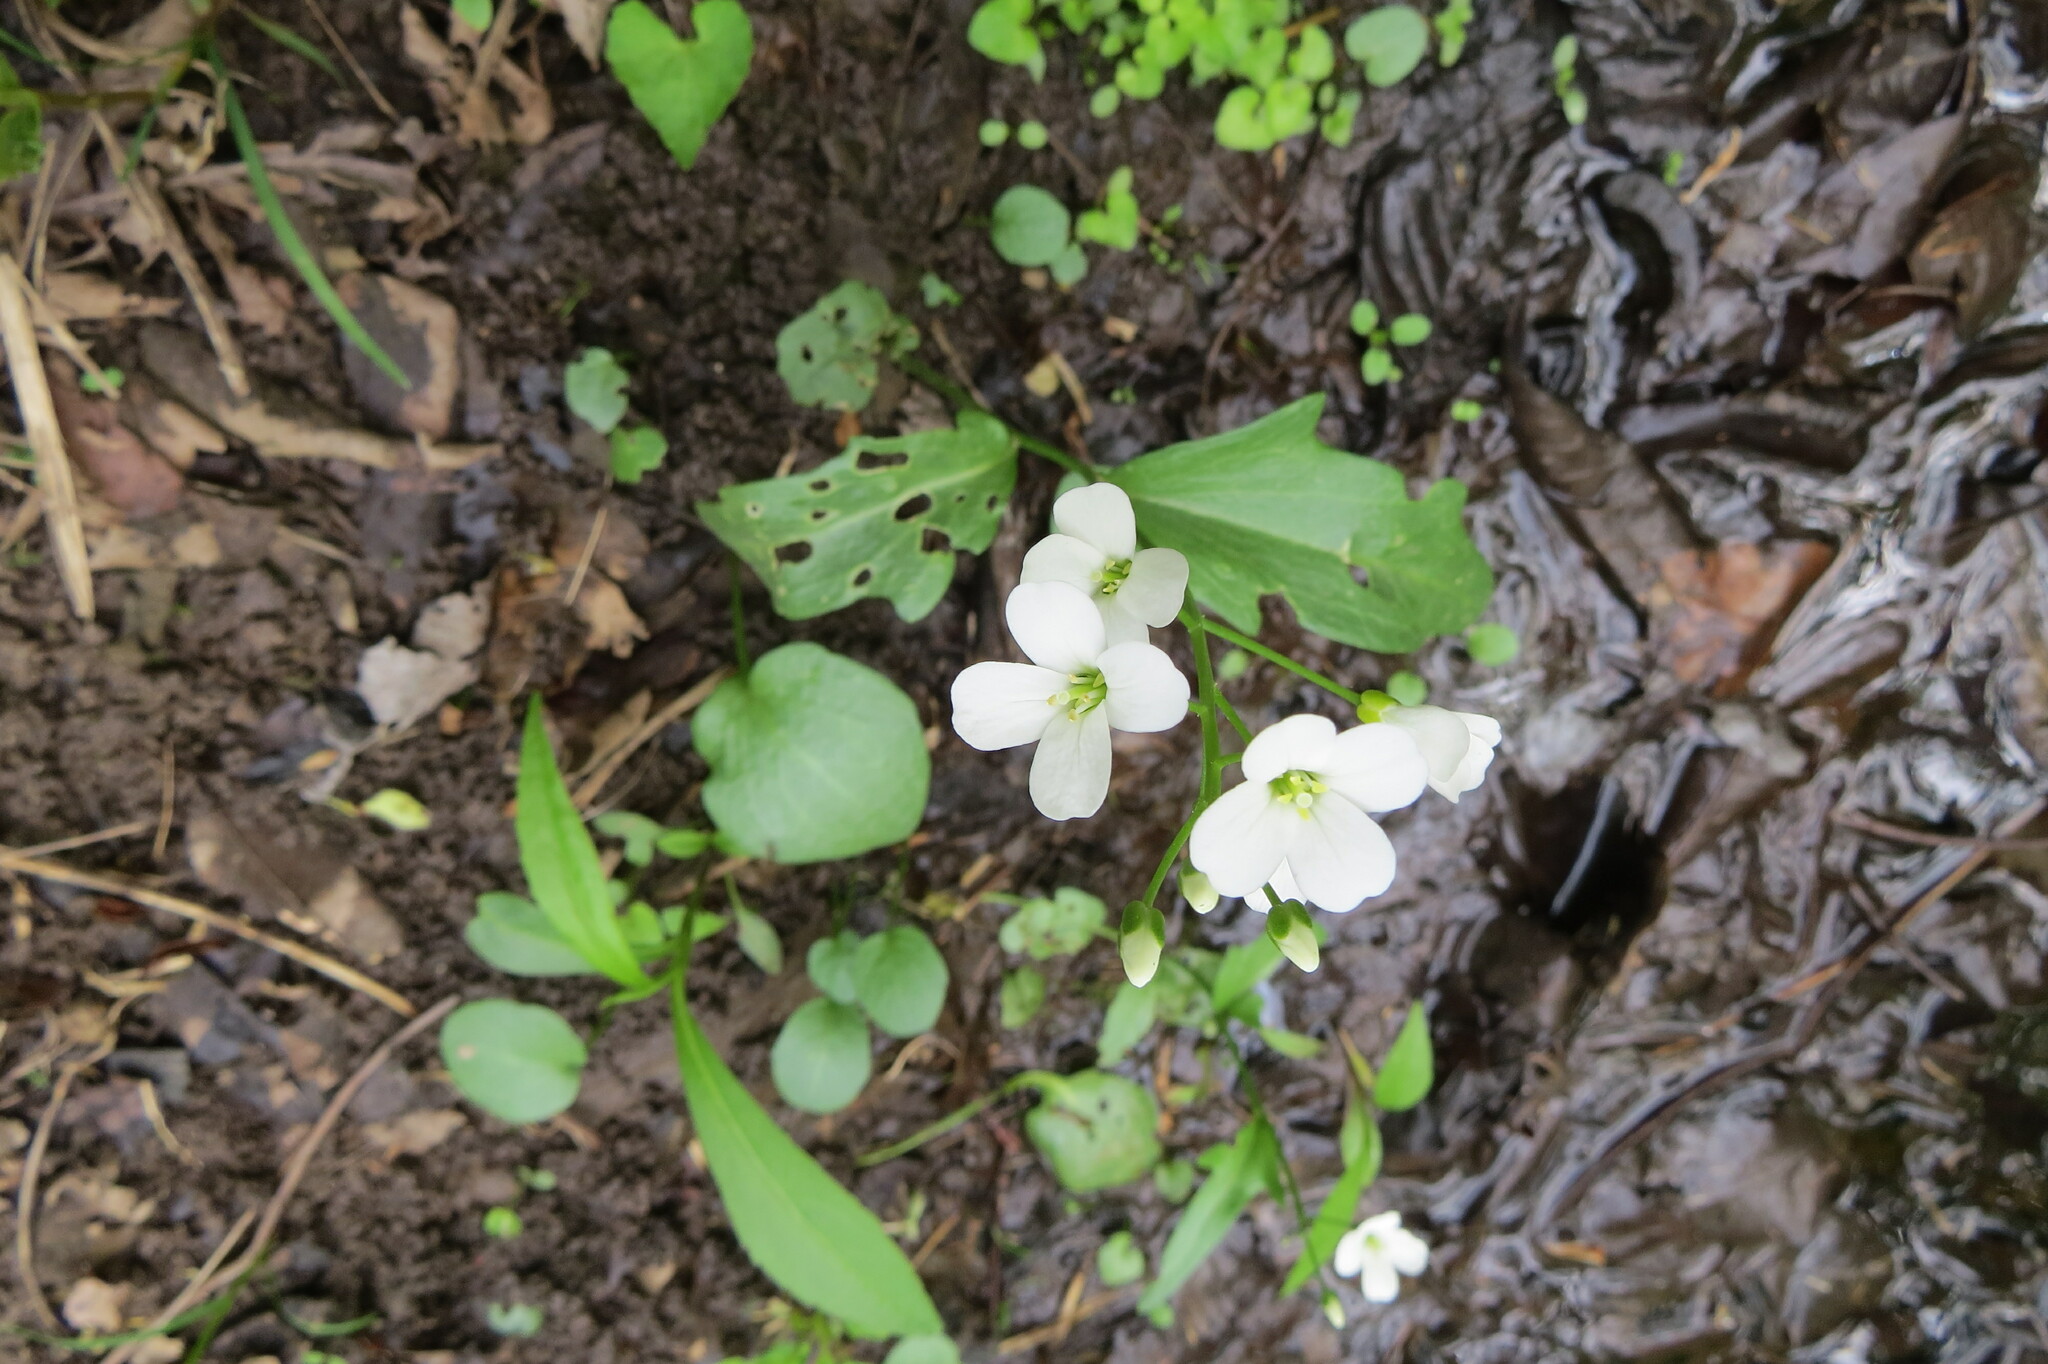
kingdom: Plantae
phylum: Tracheophyta
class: Magnoliopsida
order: Brassicales
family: Brassicaceae
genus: Cardamine
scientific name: Cardamine bulbosa
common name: Spring cress
